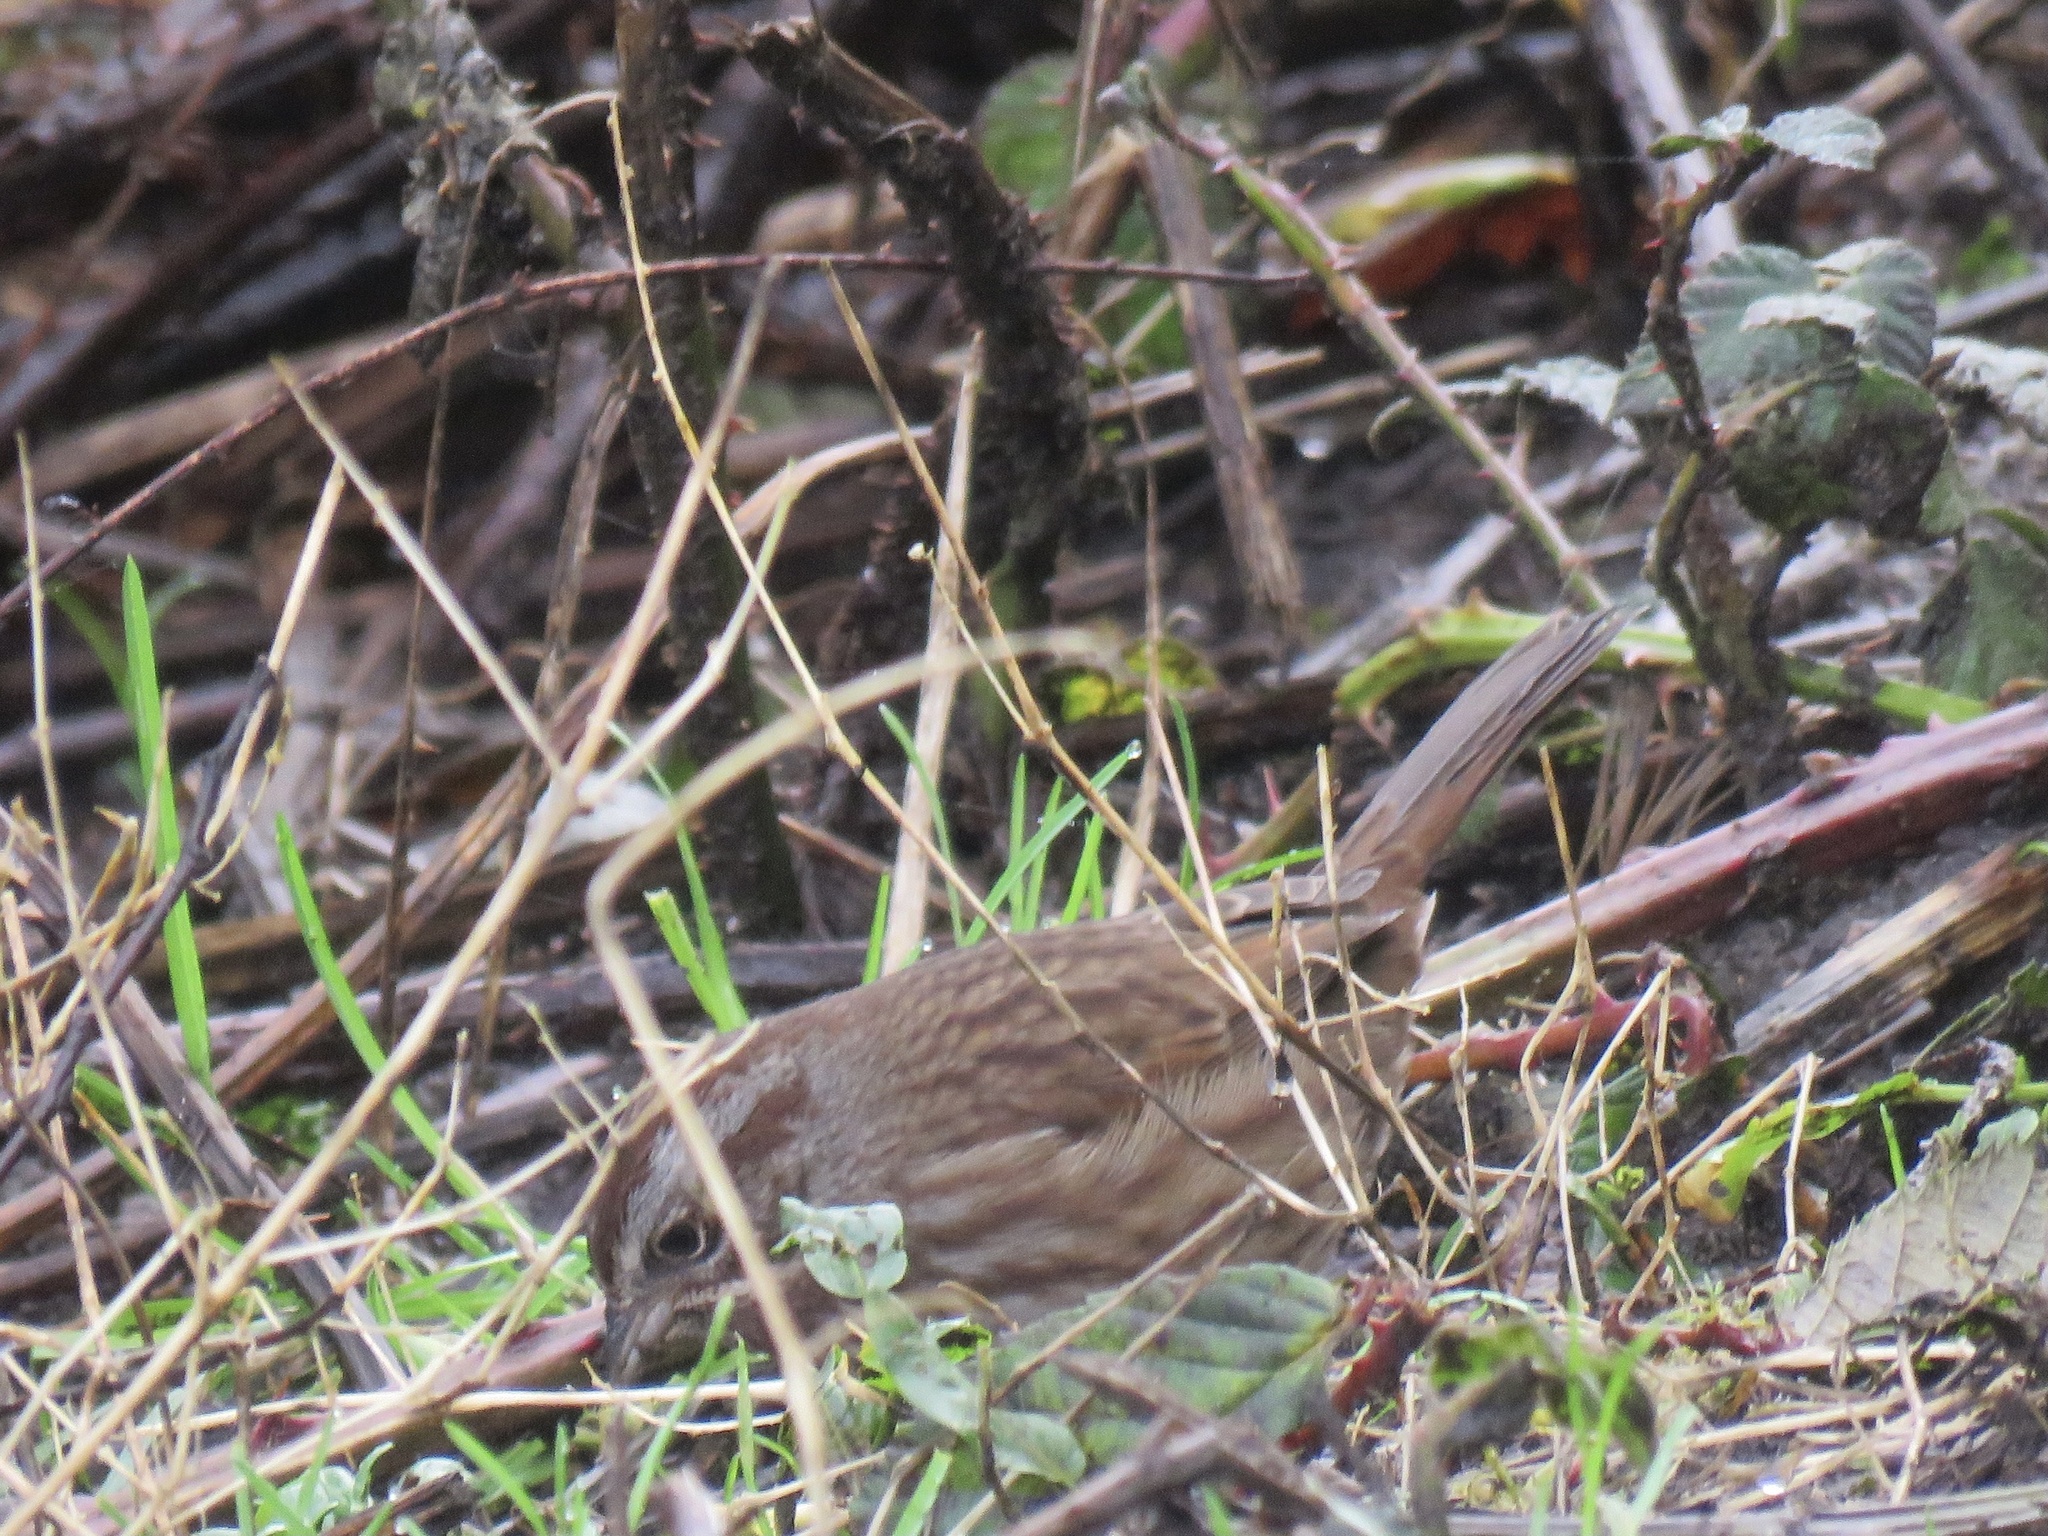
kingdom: Animalia
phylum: Chordata
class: Aves
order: Passeriformes
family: Passerellidae
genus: Melospiza
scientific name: Melospiza melodia
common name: Song sparrow
